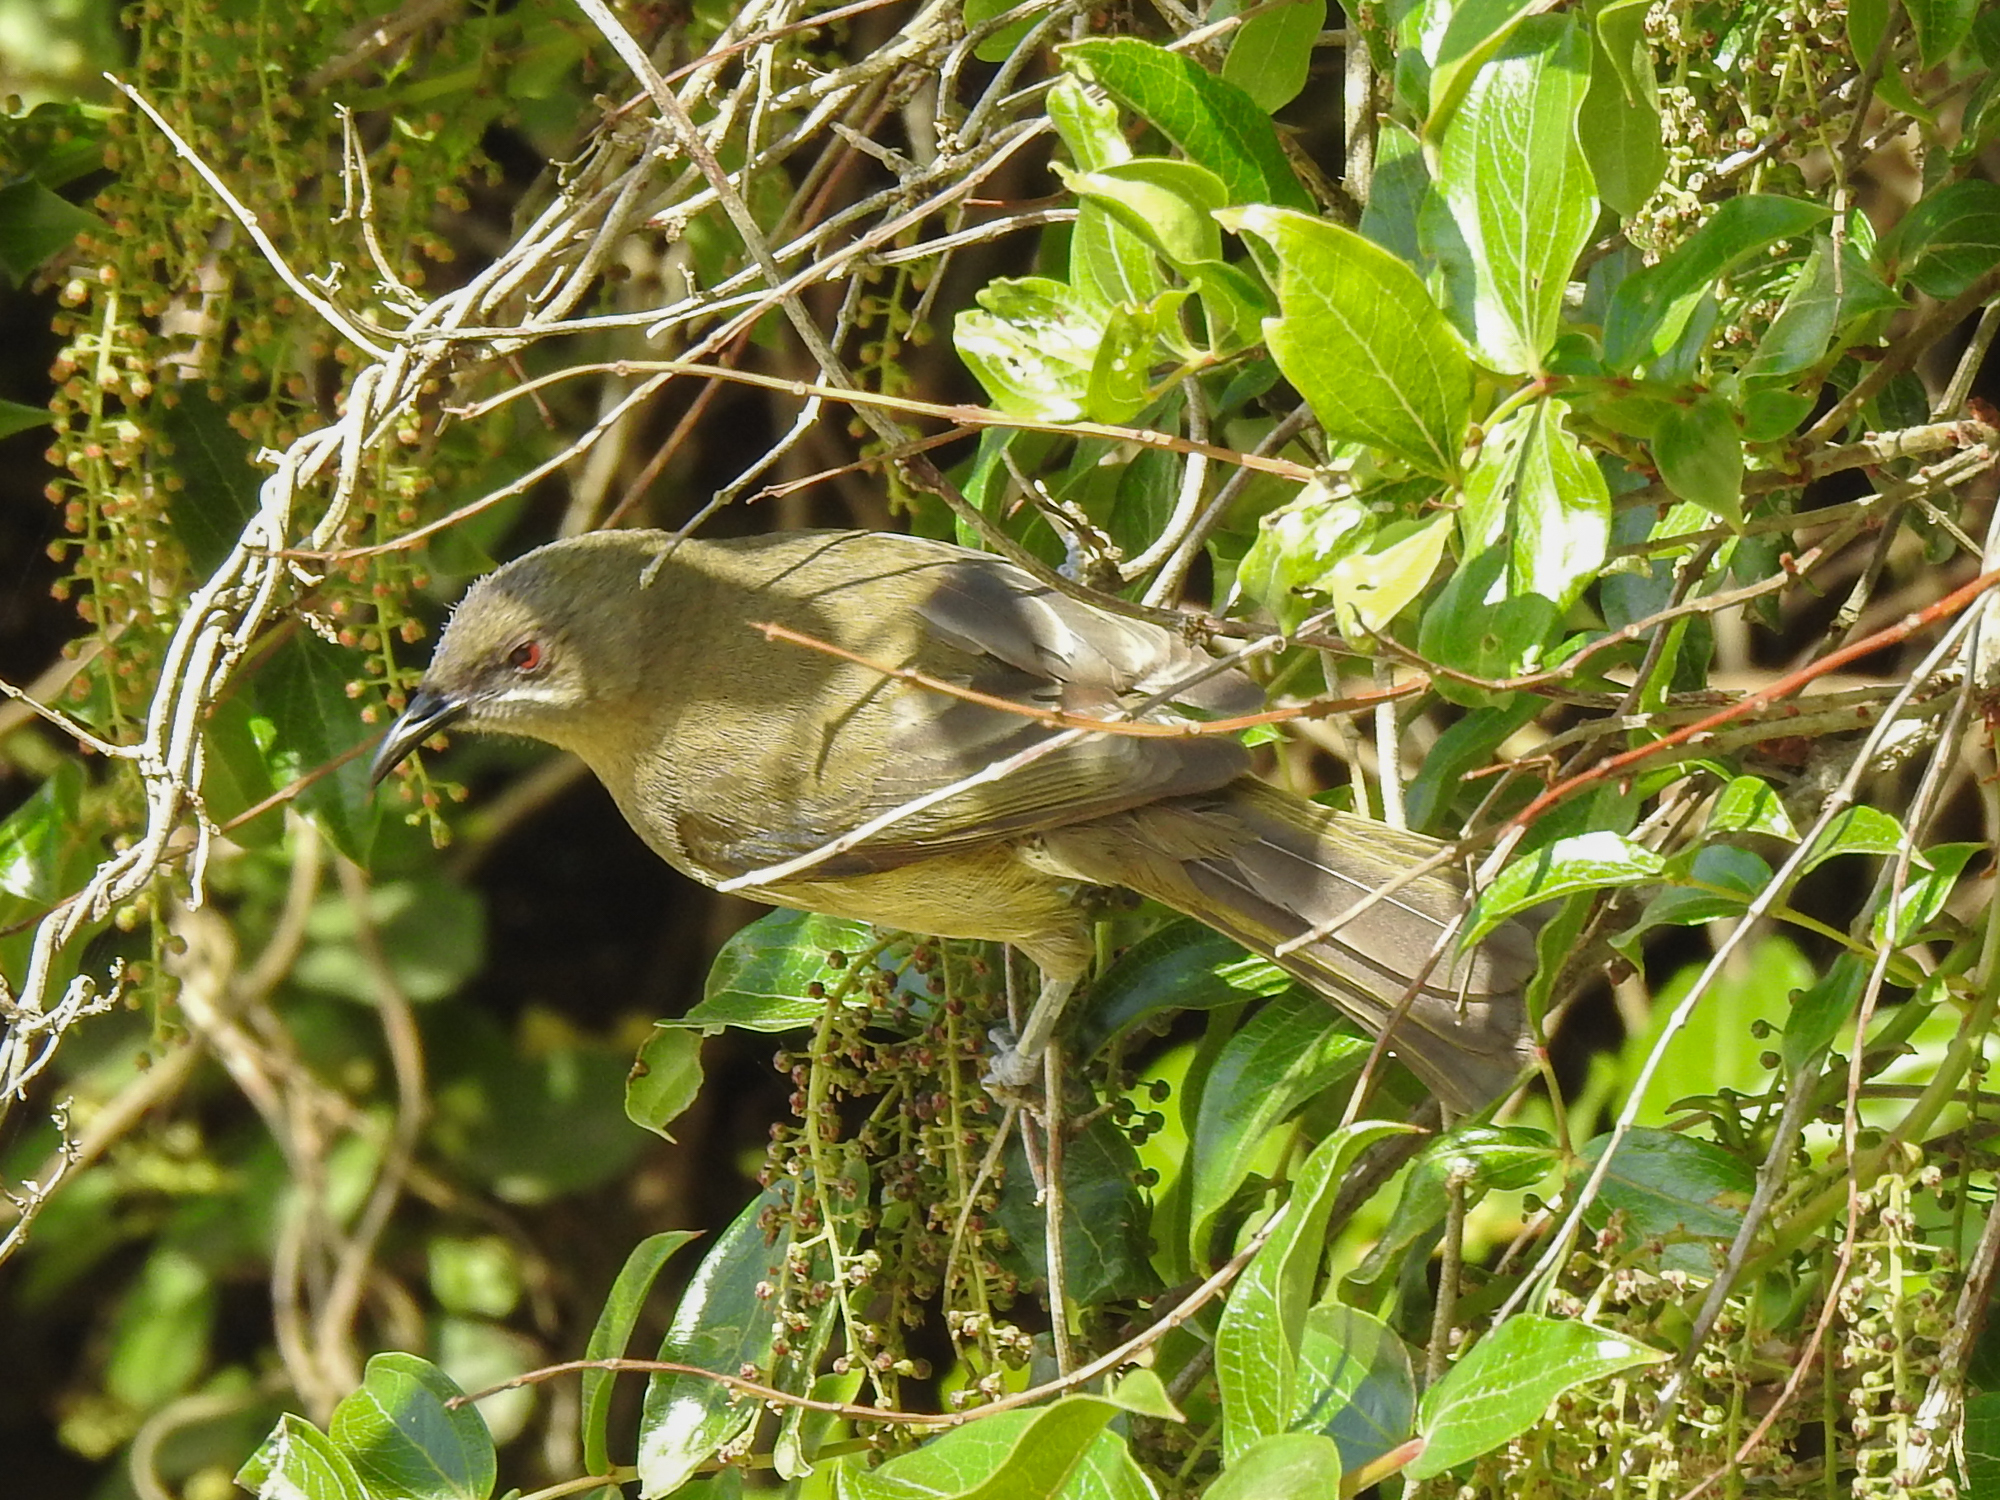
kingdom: Animalia
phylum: Chordata
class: Aves
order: Passeriformes
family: Meliphagidae
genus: Anthornis
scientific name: Anthornis melanura
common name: New zealand bellbird
